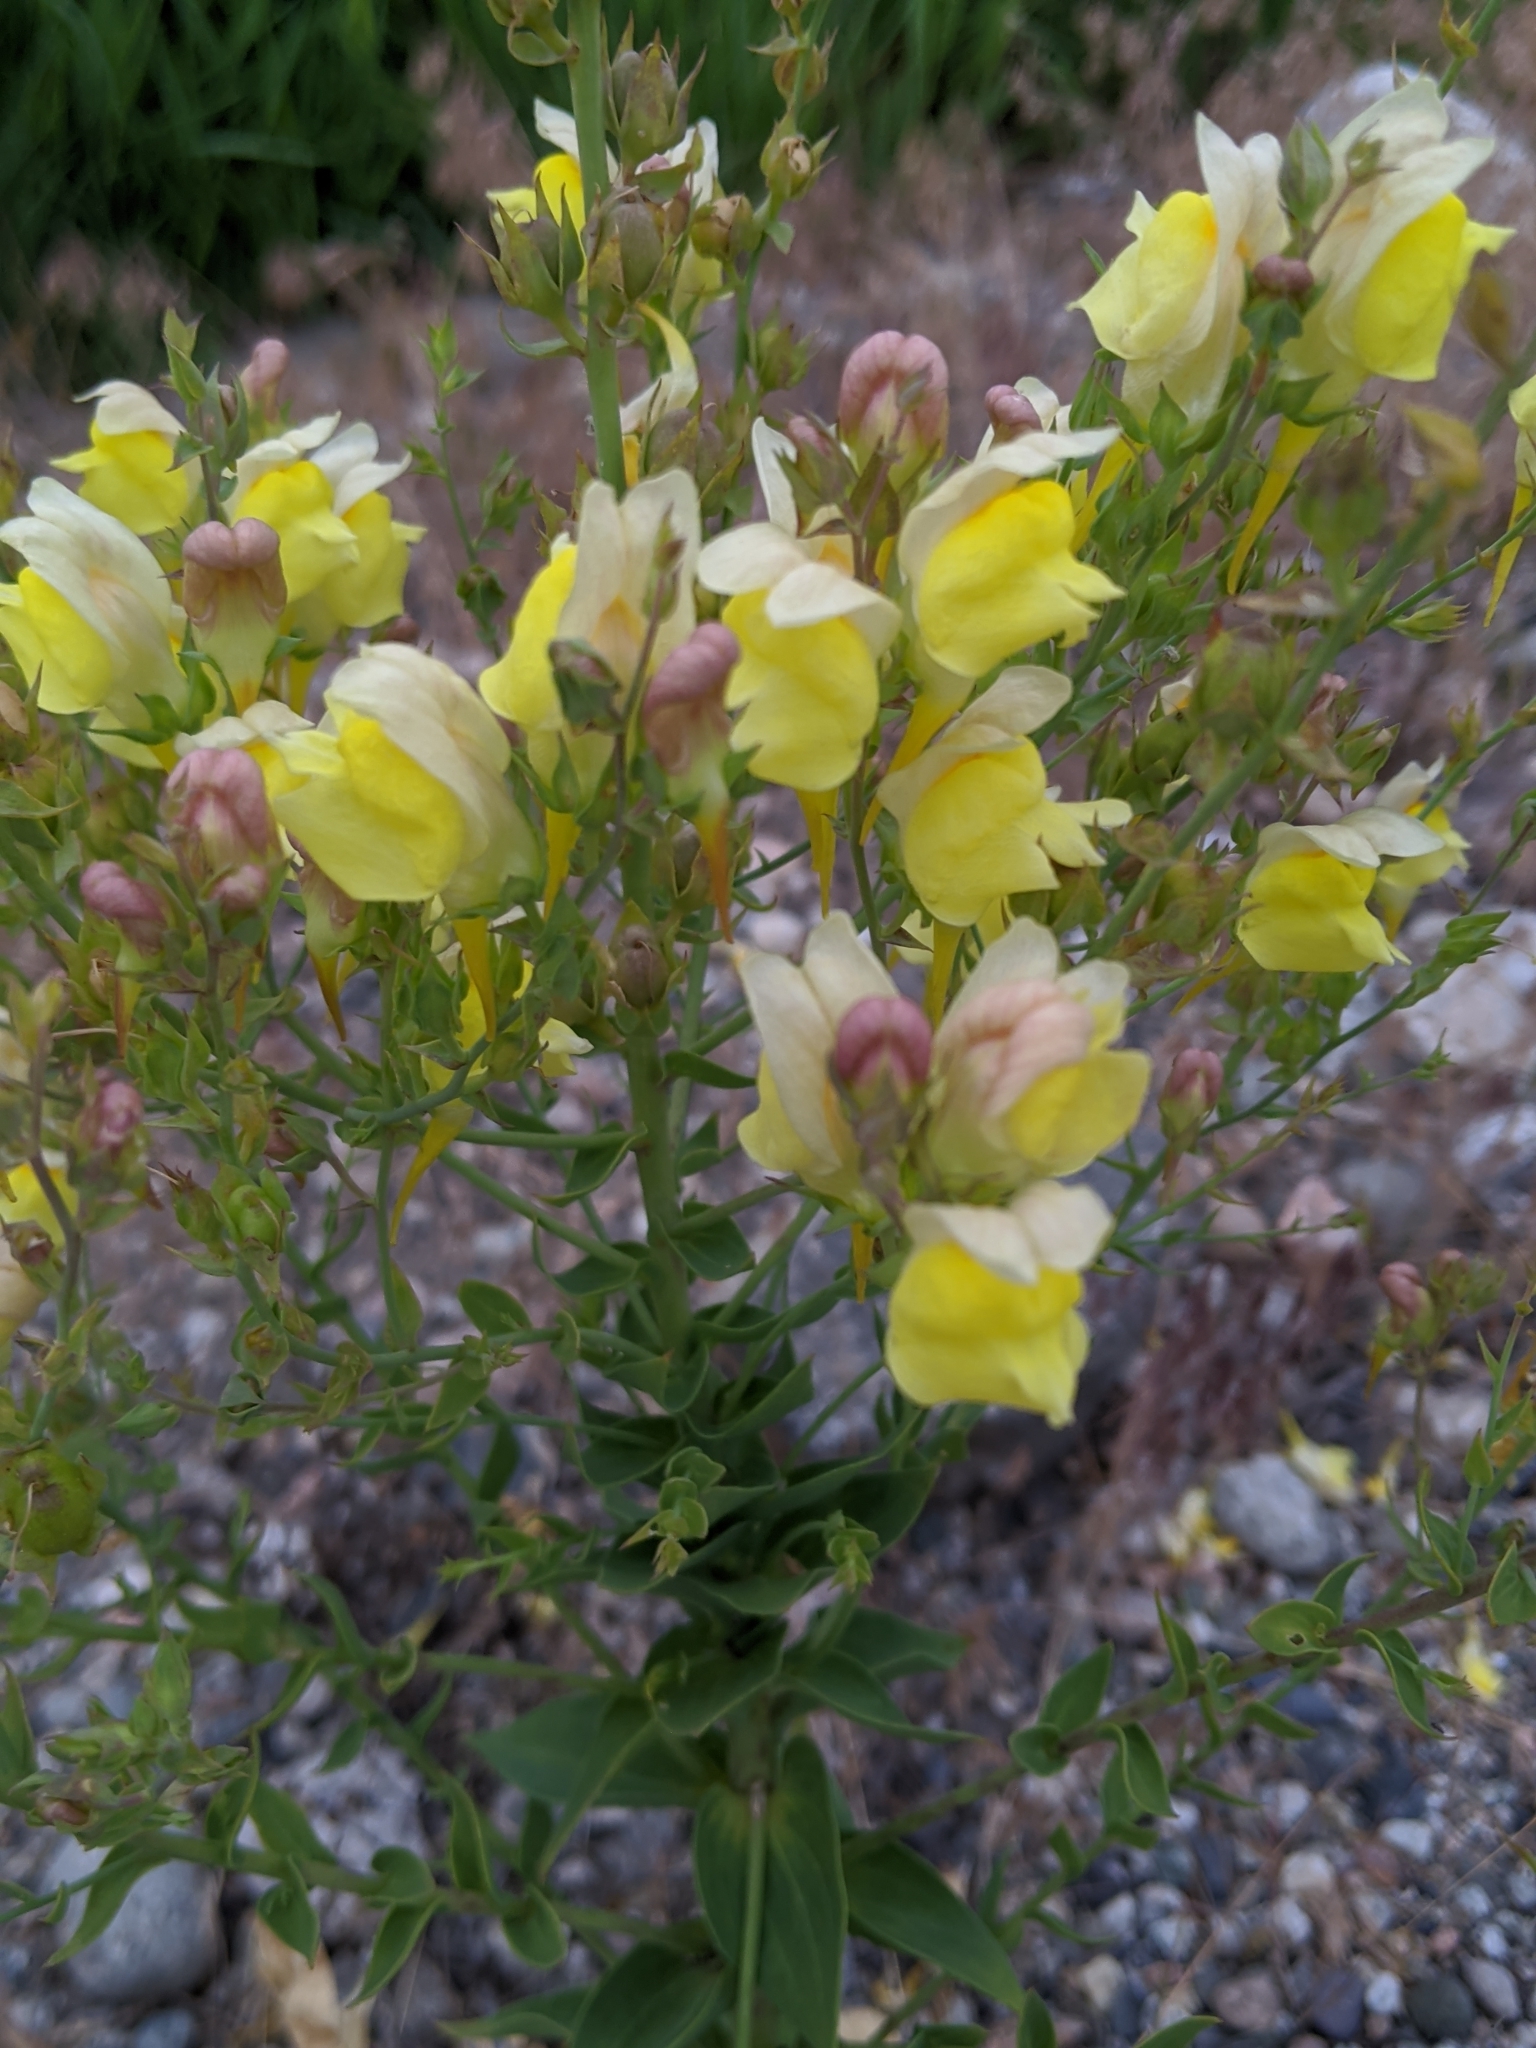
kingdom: Plantae
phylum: Tracheophyta
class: Magnoliopsida
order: Lamiales
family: Plantaginaceae
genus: Linaria
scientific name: Linaria dalmatica
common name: Dalmatian toadflax
